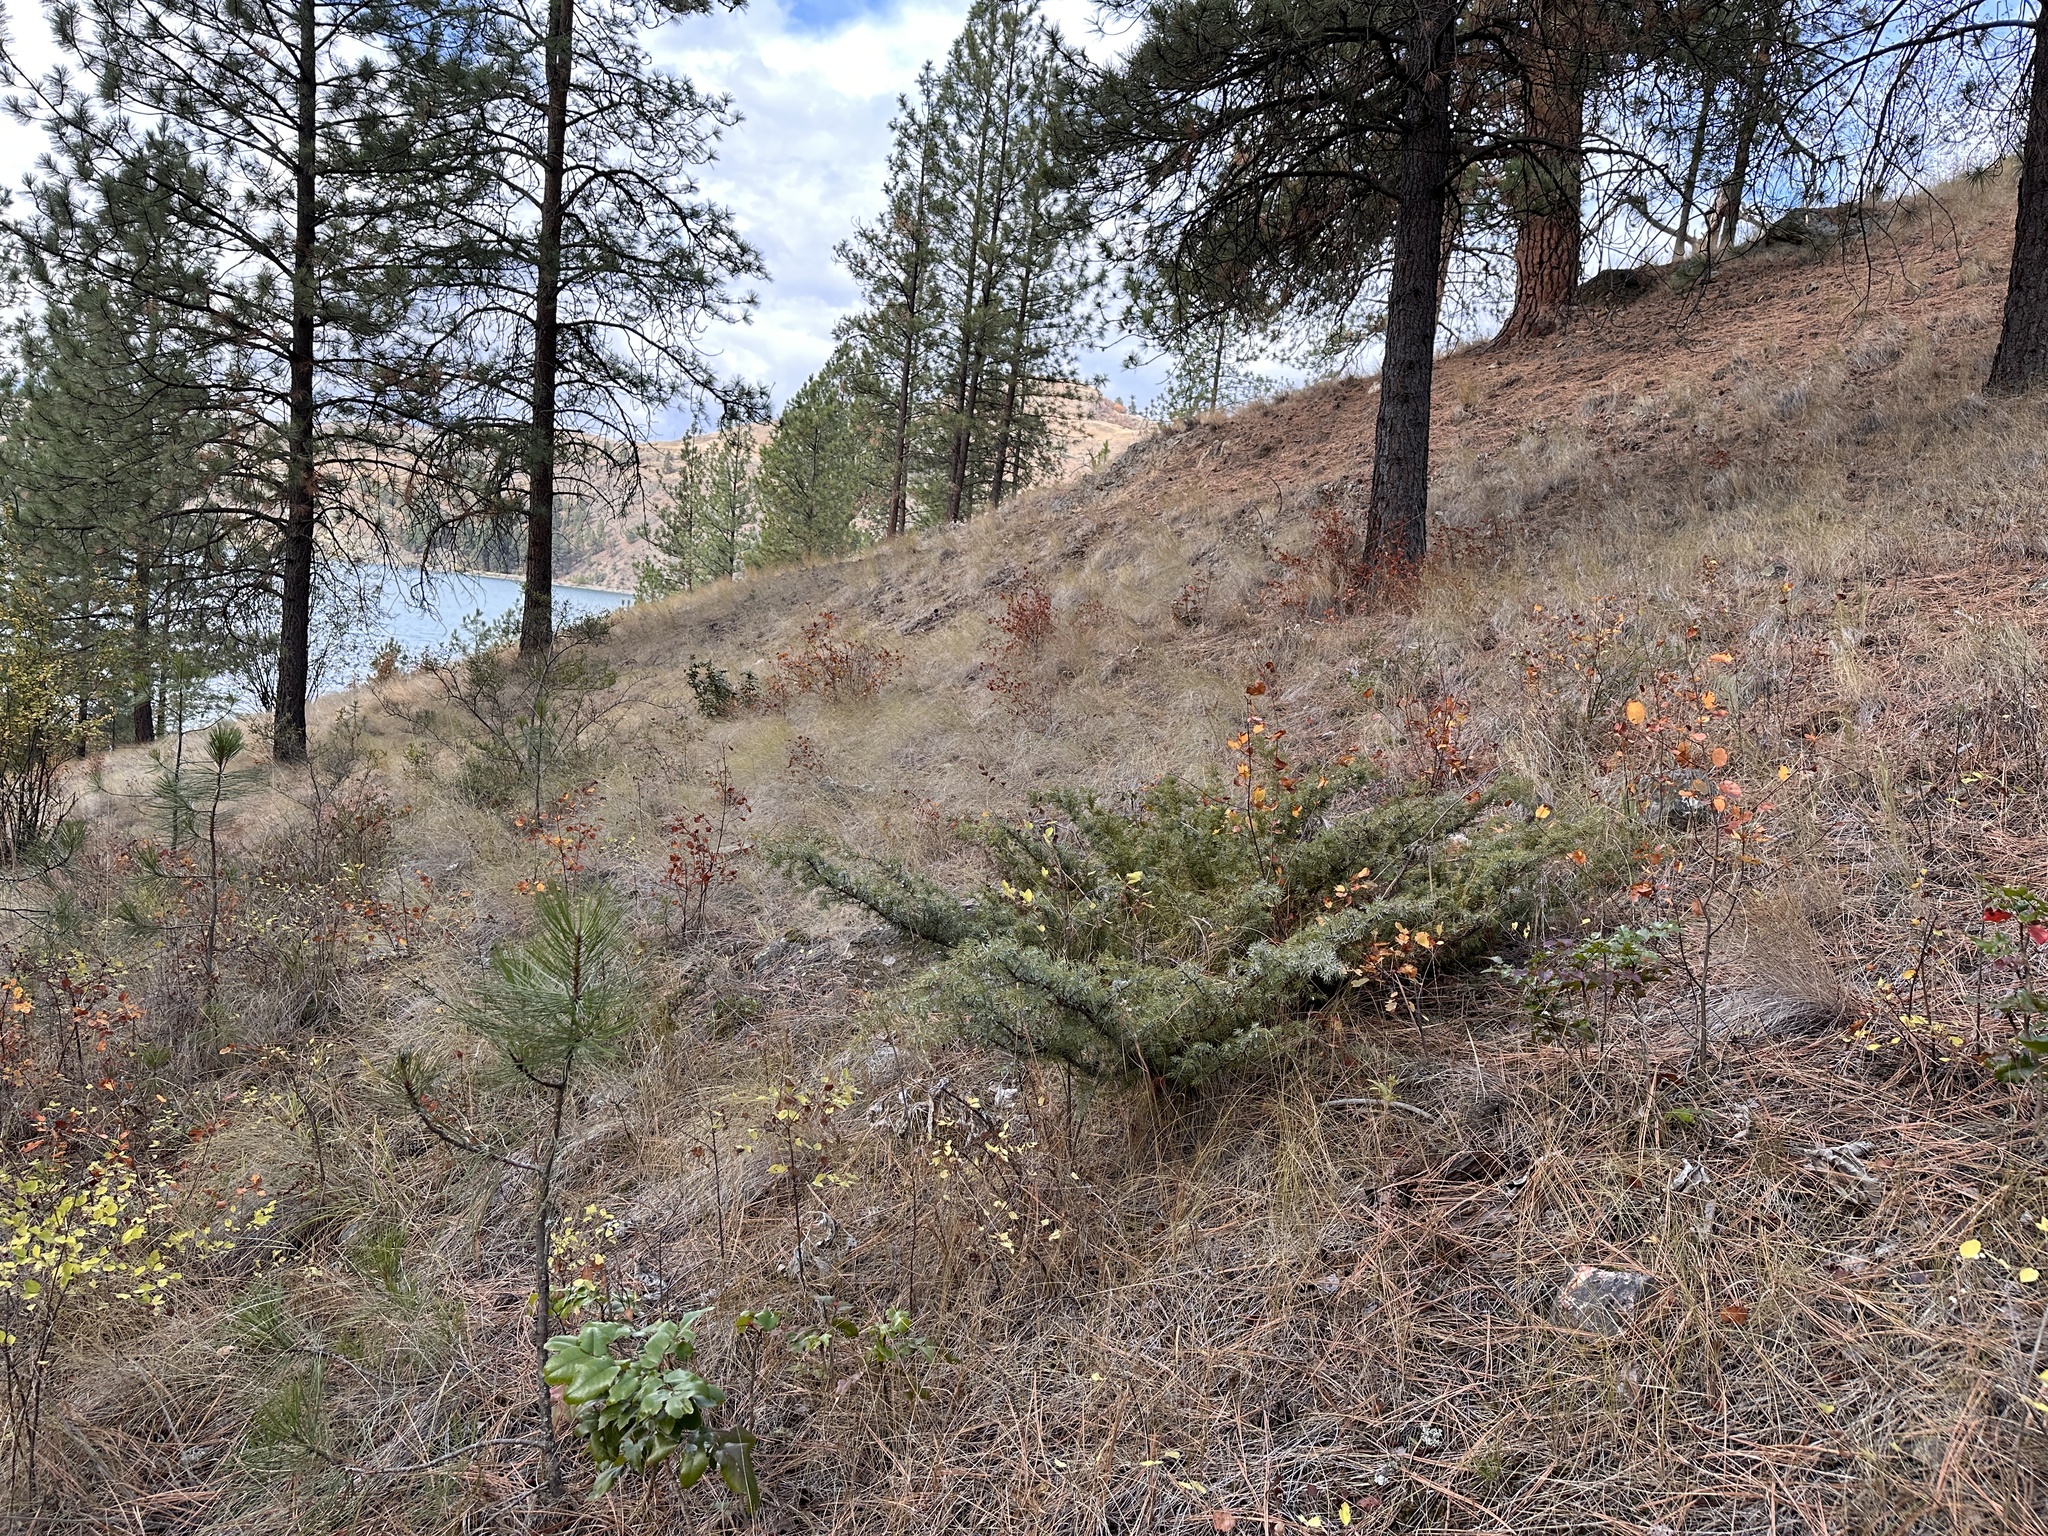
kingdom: Plantae
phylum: Tracheophyta
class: Pinopsida
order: Pinales
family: Cupressaceae
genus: Juniperus
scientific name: Juniperus communis
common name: Common juniper
